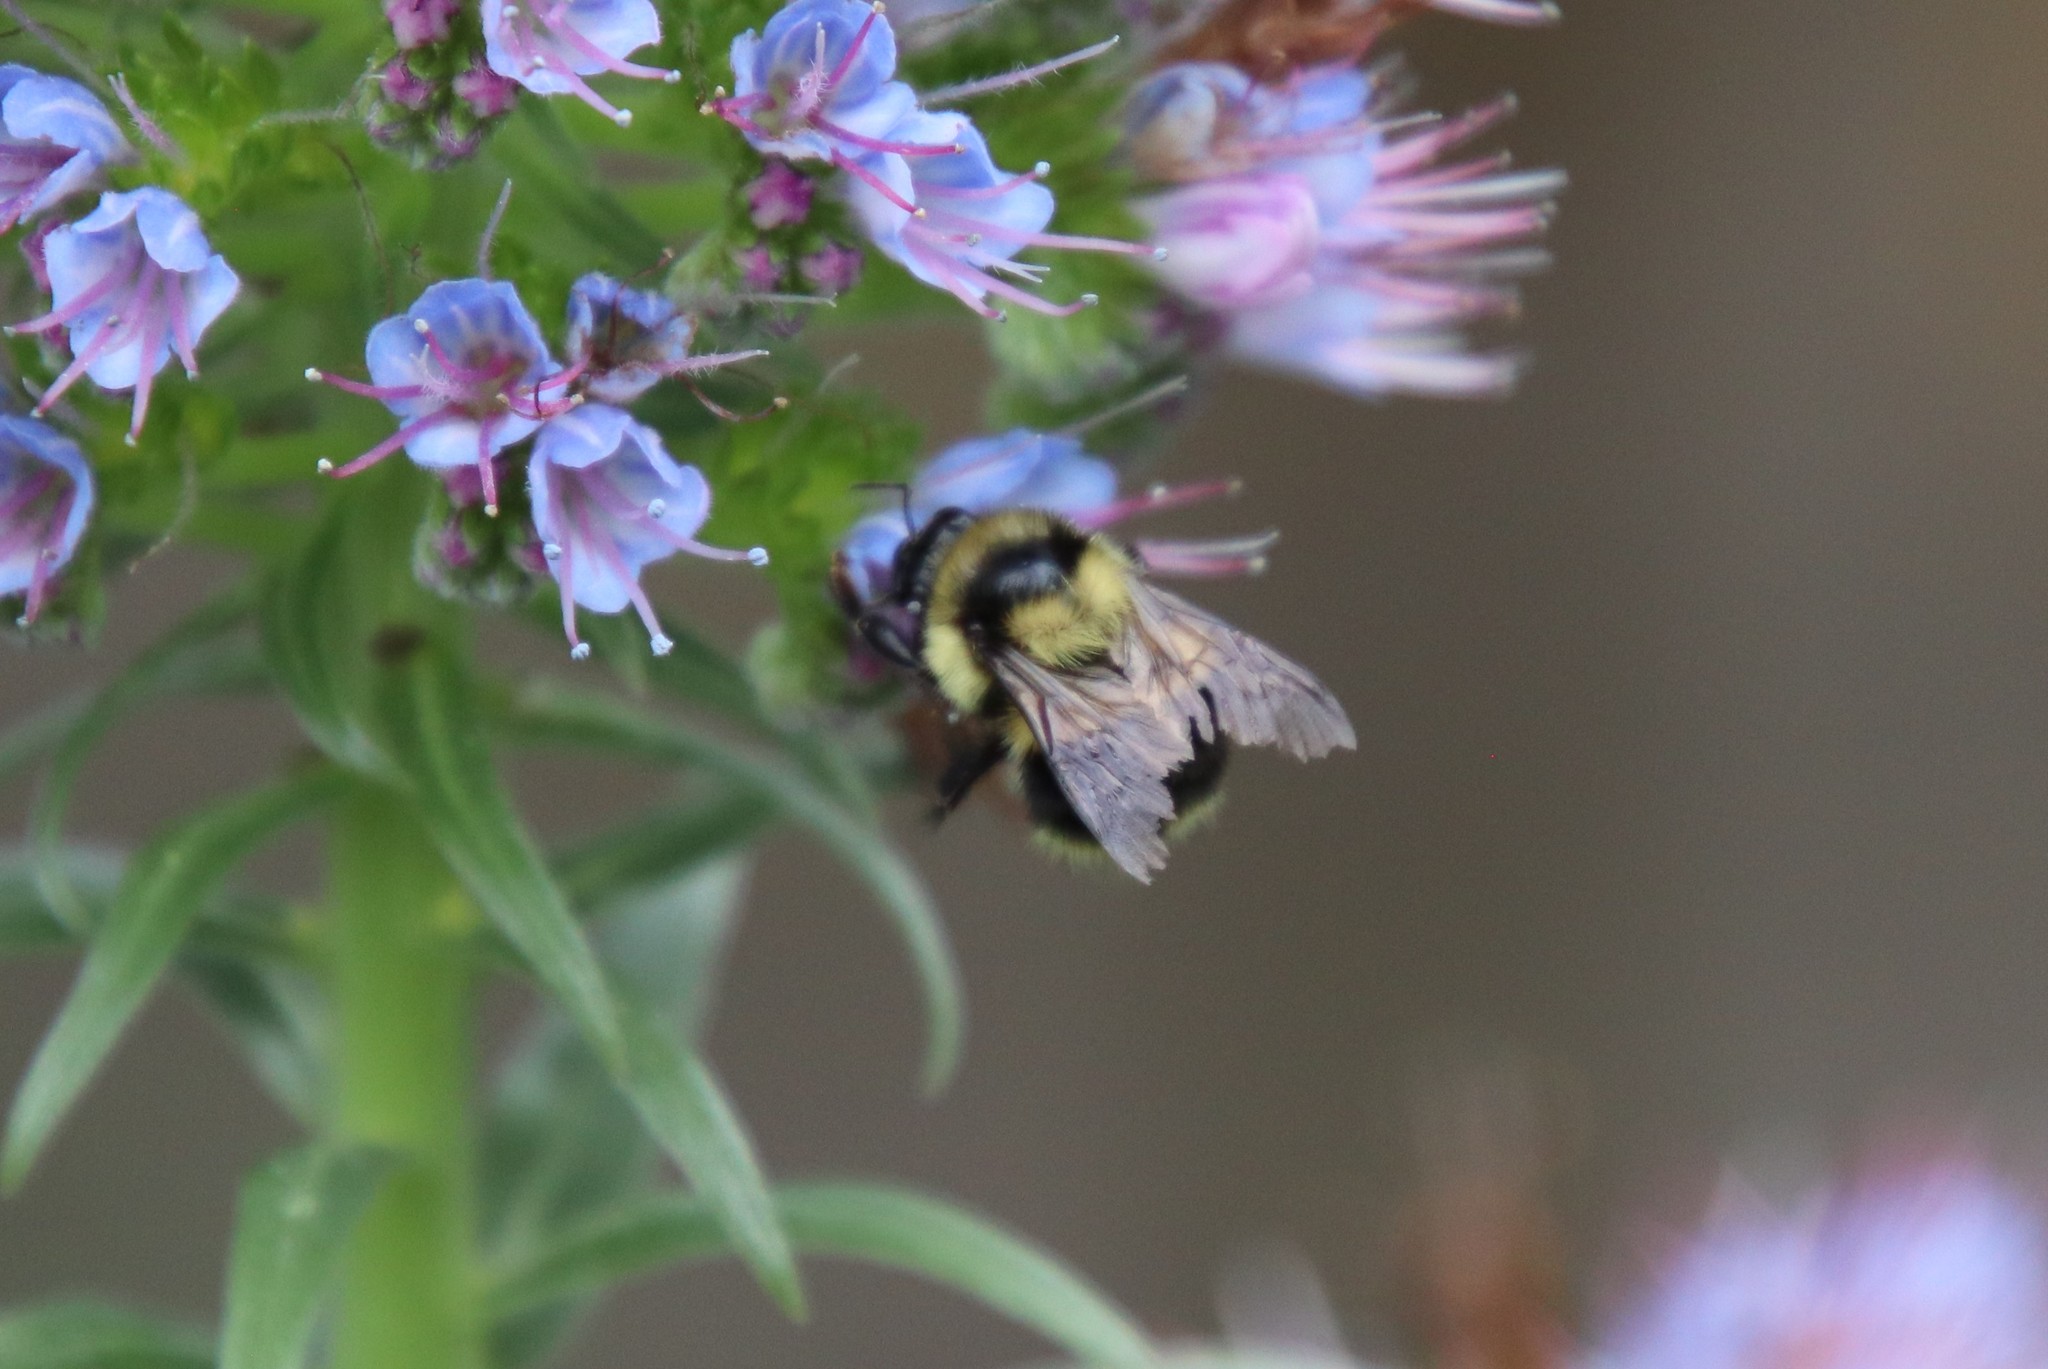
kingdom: Animalia
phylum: Arthropoda
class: Insecta
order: Hymenoptera
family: Apidae
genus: Bombus
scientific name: Bombus melanopygus
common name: Black tail bumble bee
